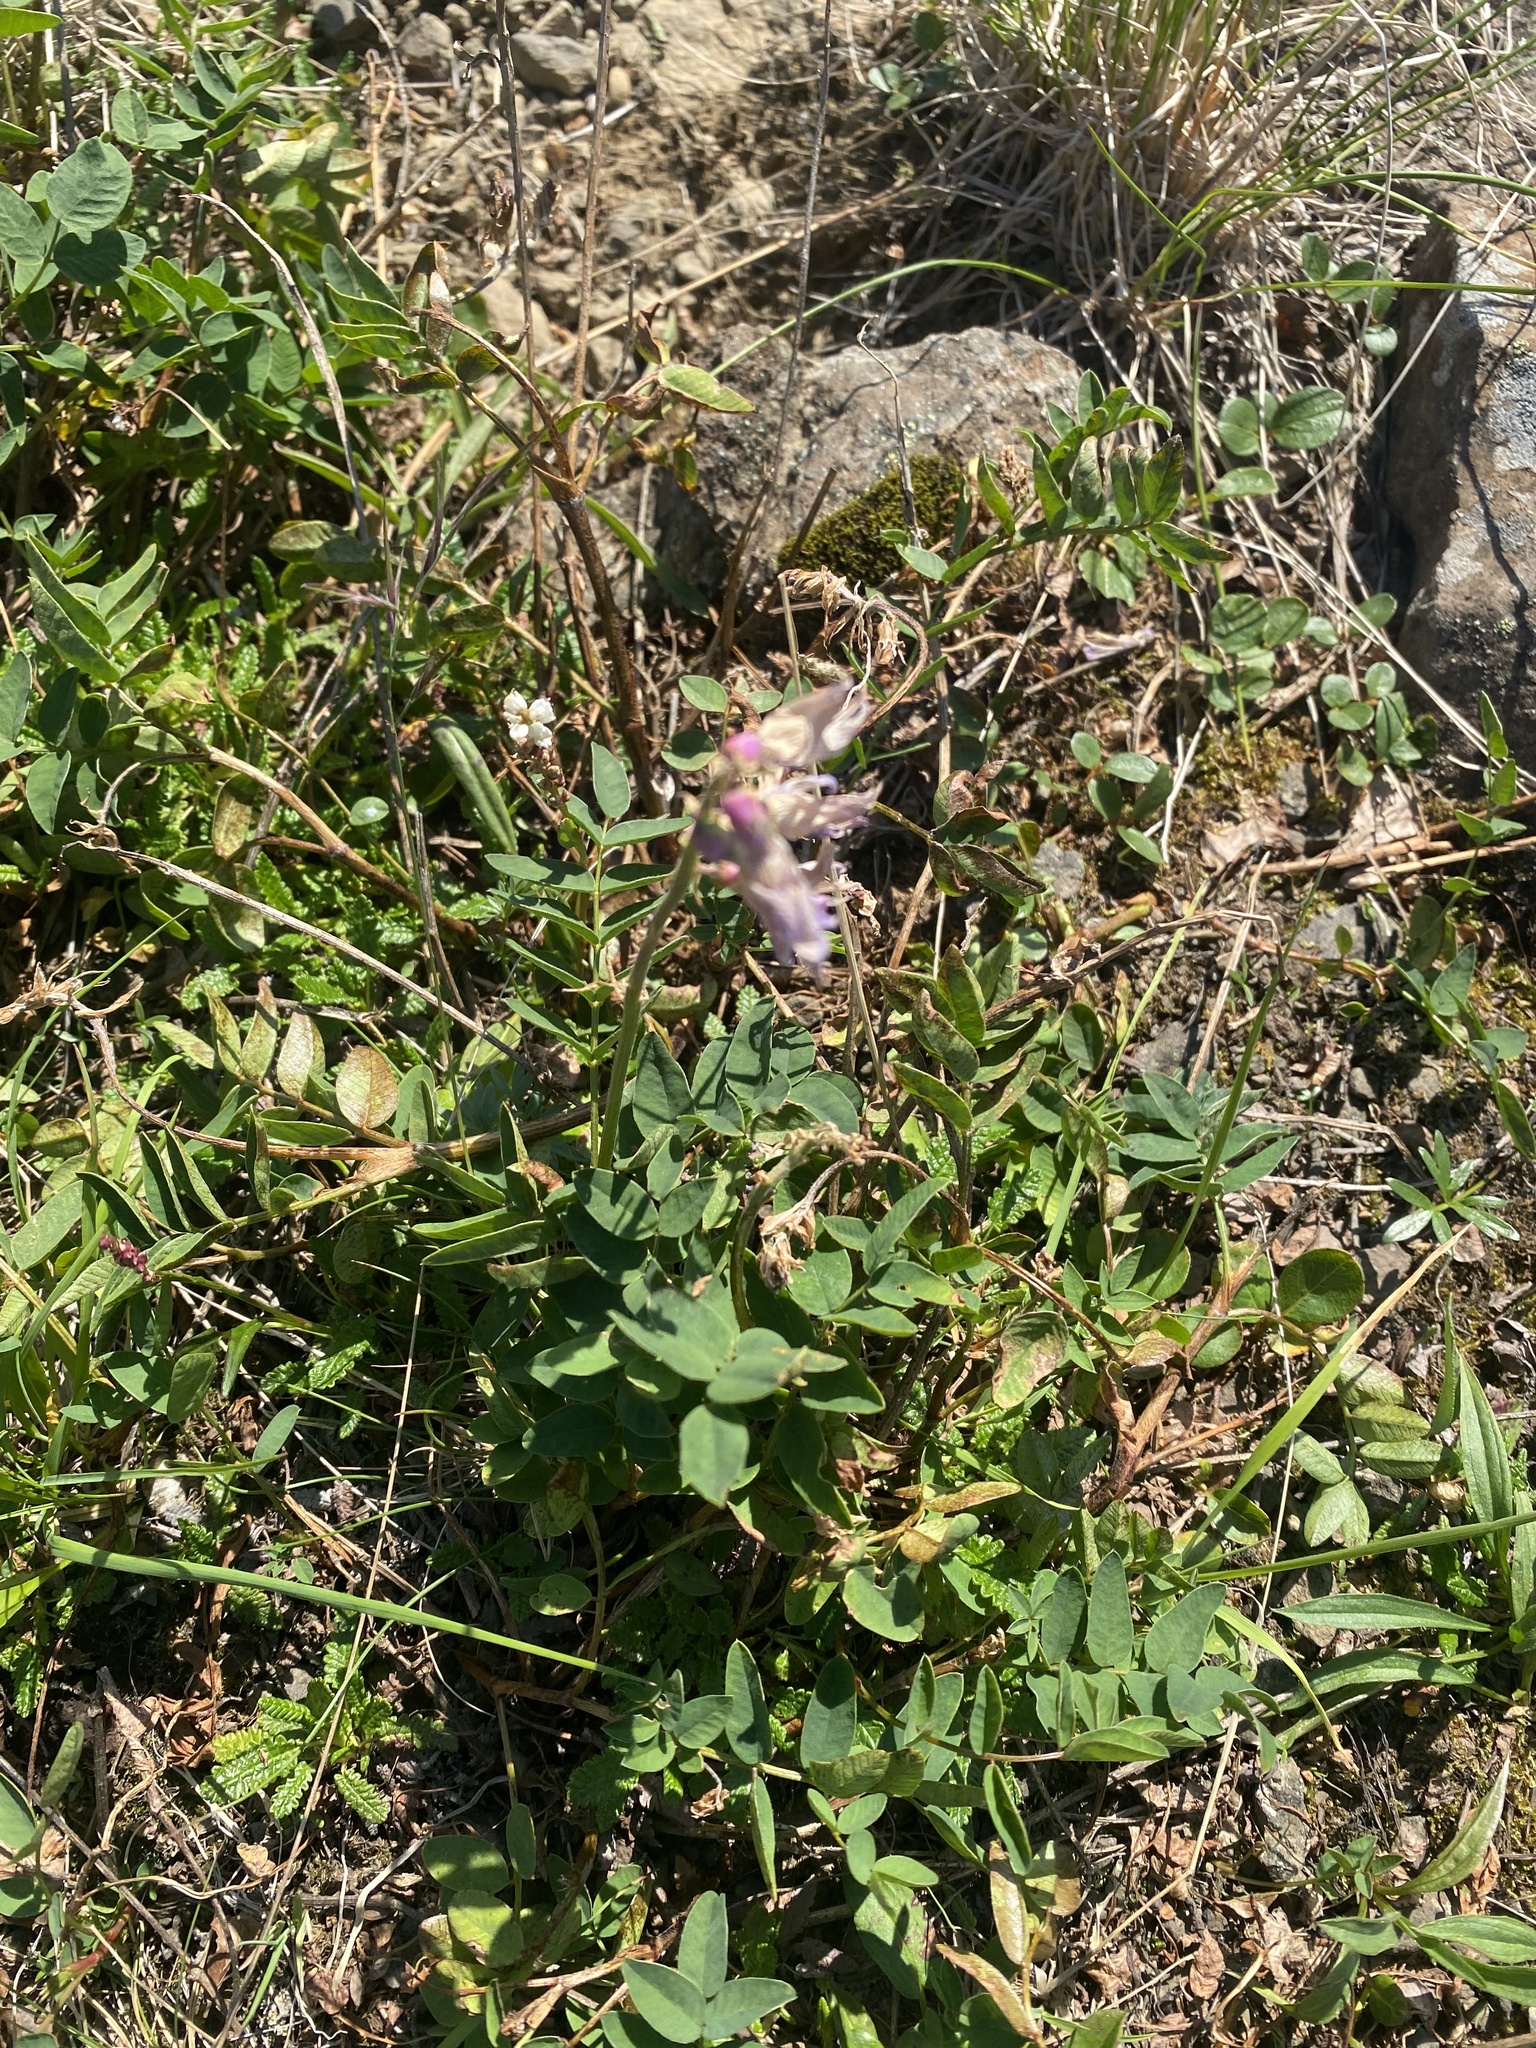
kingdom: Plantae
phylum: Tracheophyta
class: Magnoliopsida
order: Fabales
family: Fabaceae
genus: Hedysarum
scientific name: Hedysarum hedysaroides
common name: Alpine french-honeysuckle
